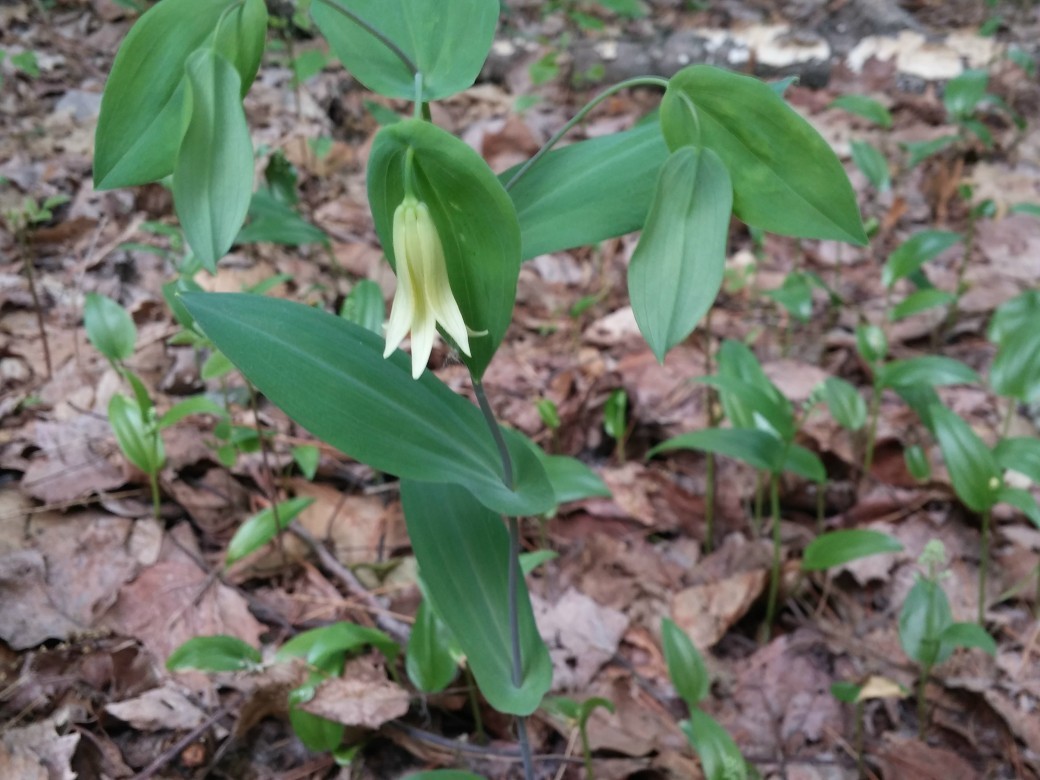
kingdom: Plantae
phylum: Tracheophyta
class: Liliopsida
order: Liliales
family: Colchicaceae
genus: Uvularia
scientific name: Uvularia perfoliata
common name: Perfoliate bellwort
